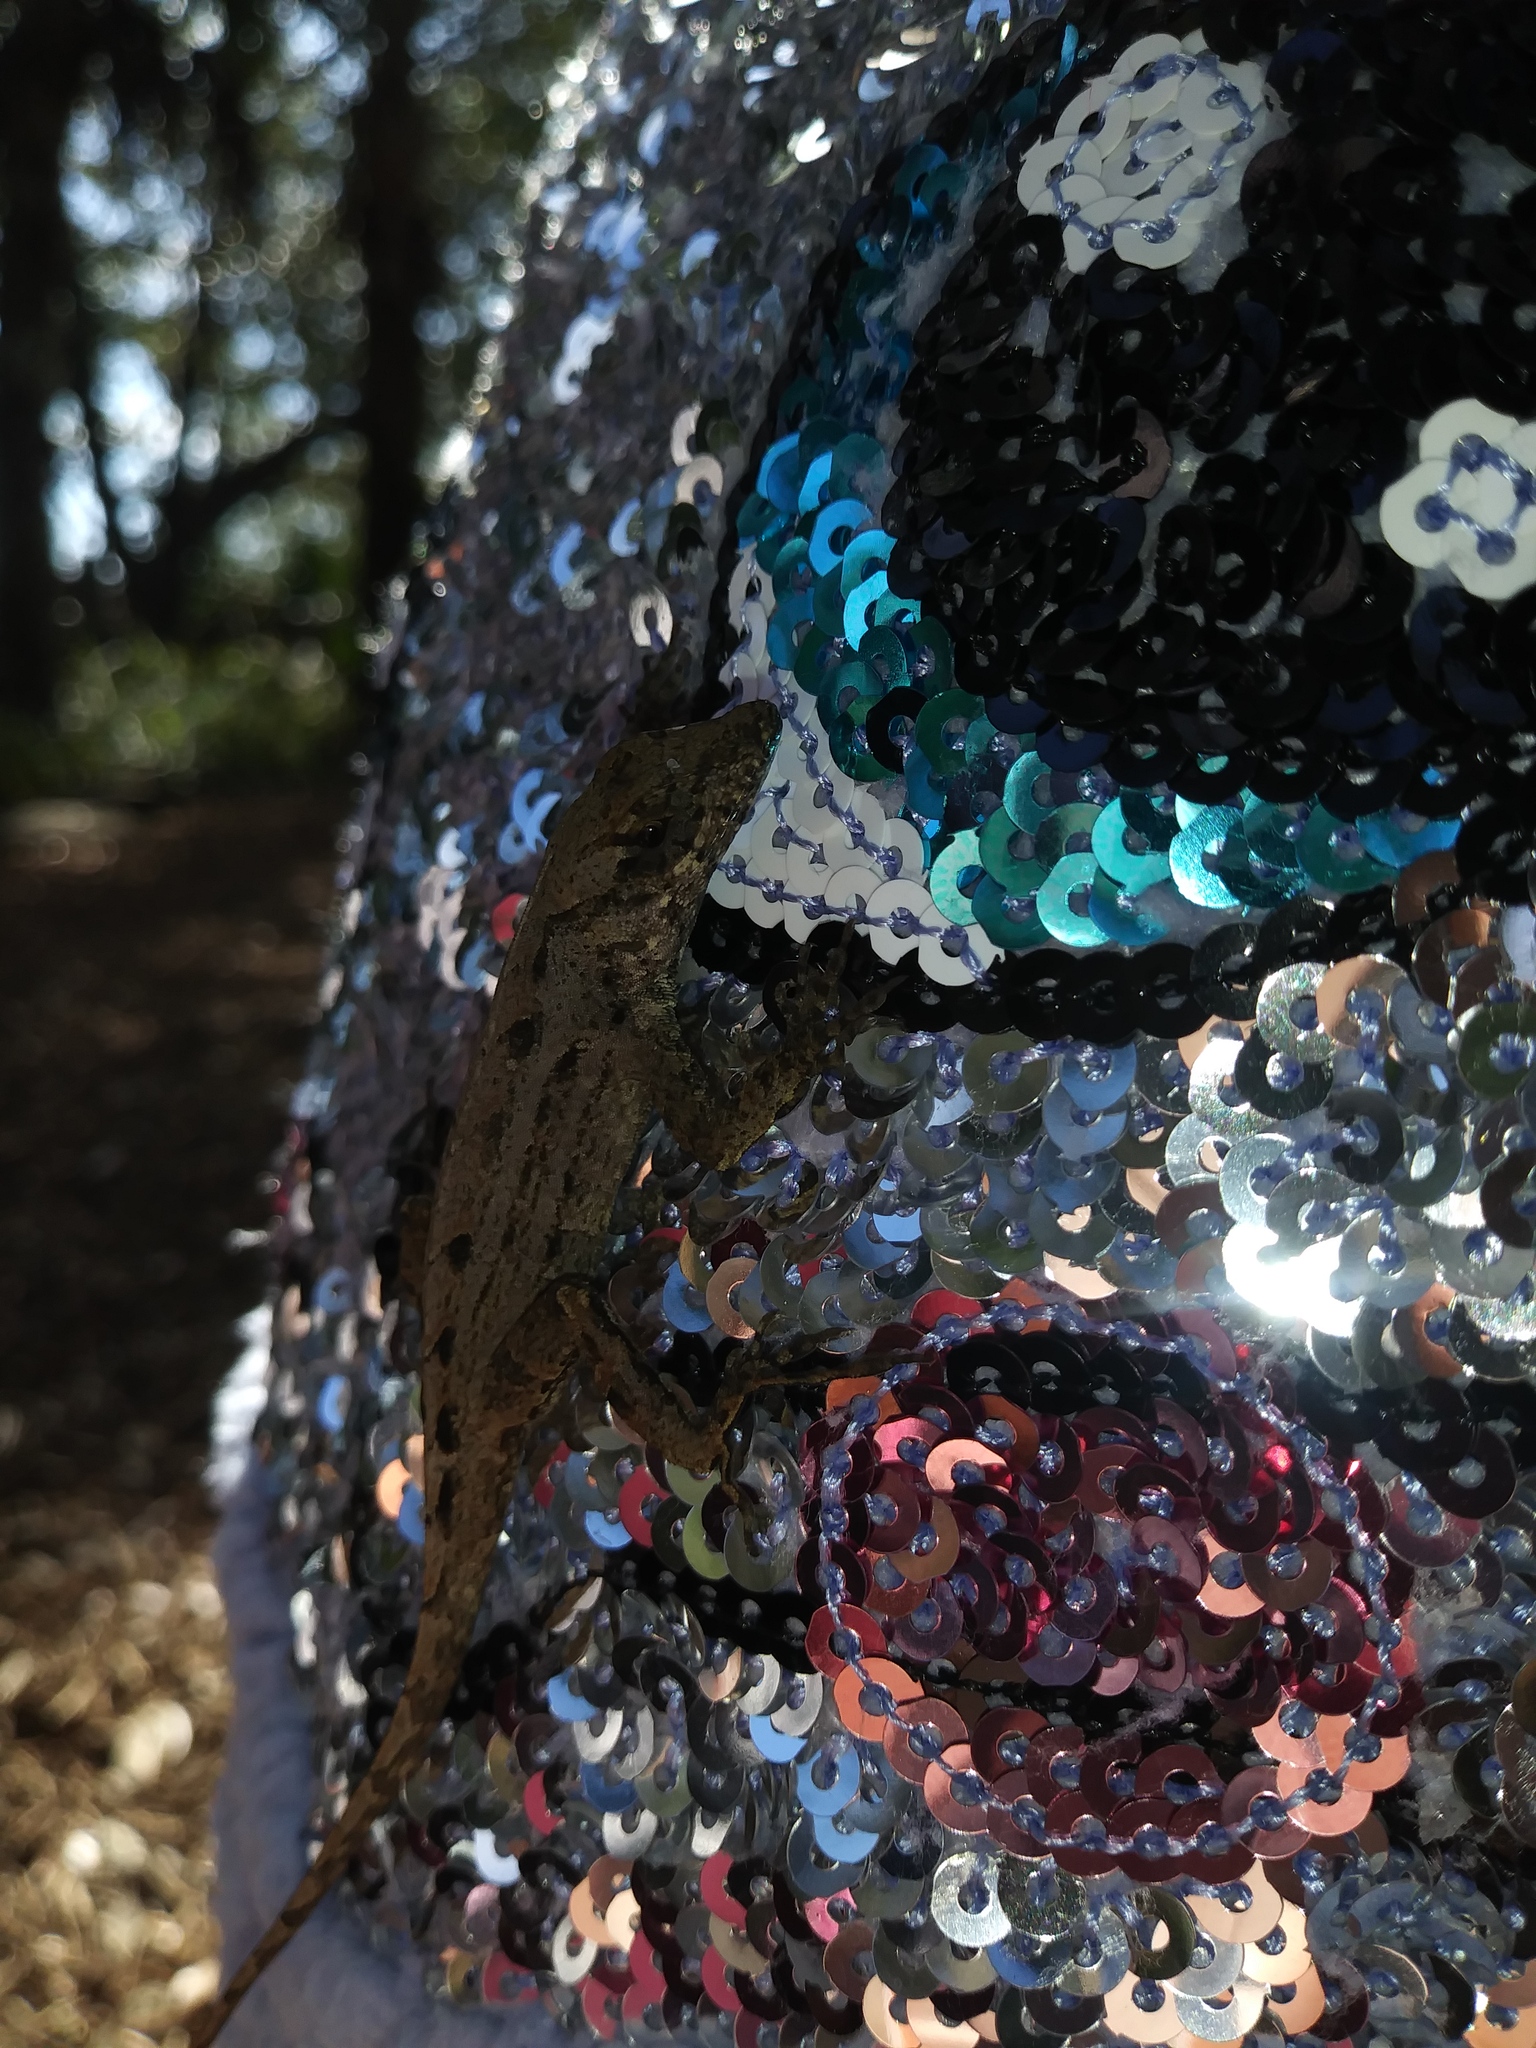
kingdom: Animalia
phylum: Chordata
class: Squamata
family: Dactyloidae
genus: Anolis
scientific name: Anolis sagrei
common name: Brown anole
